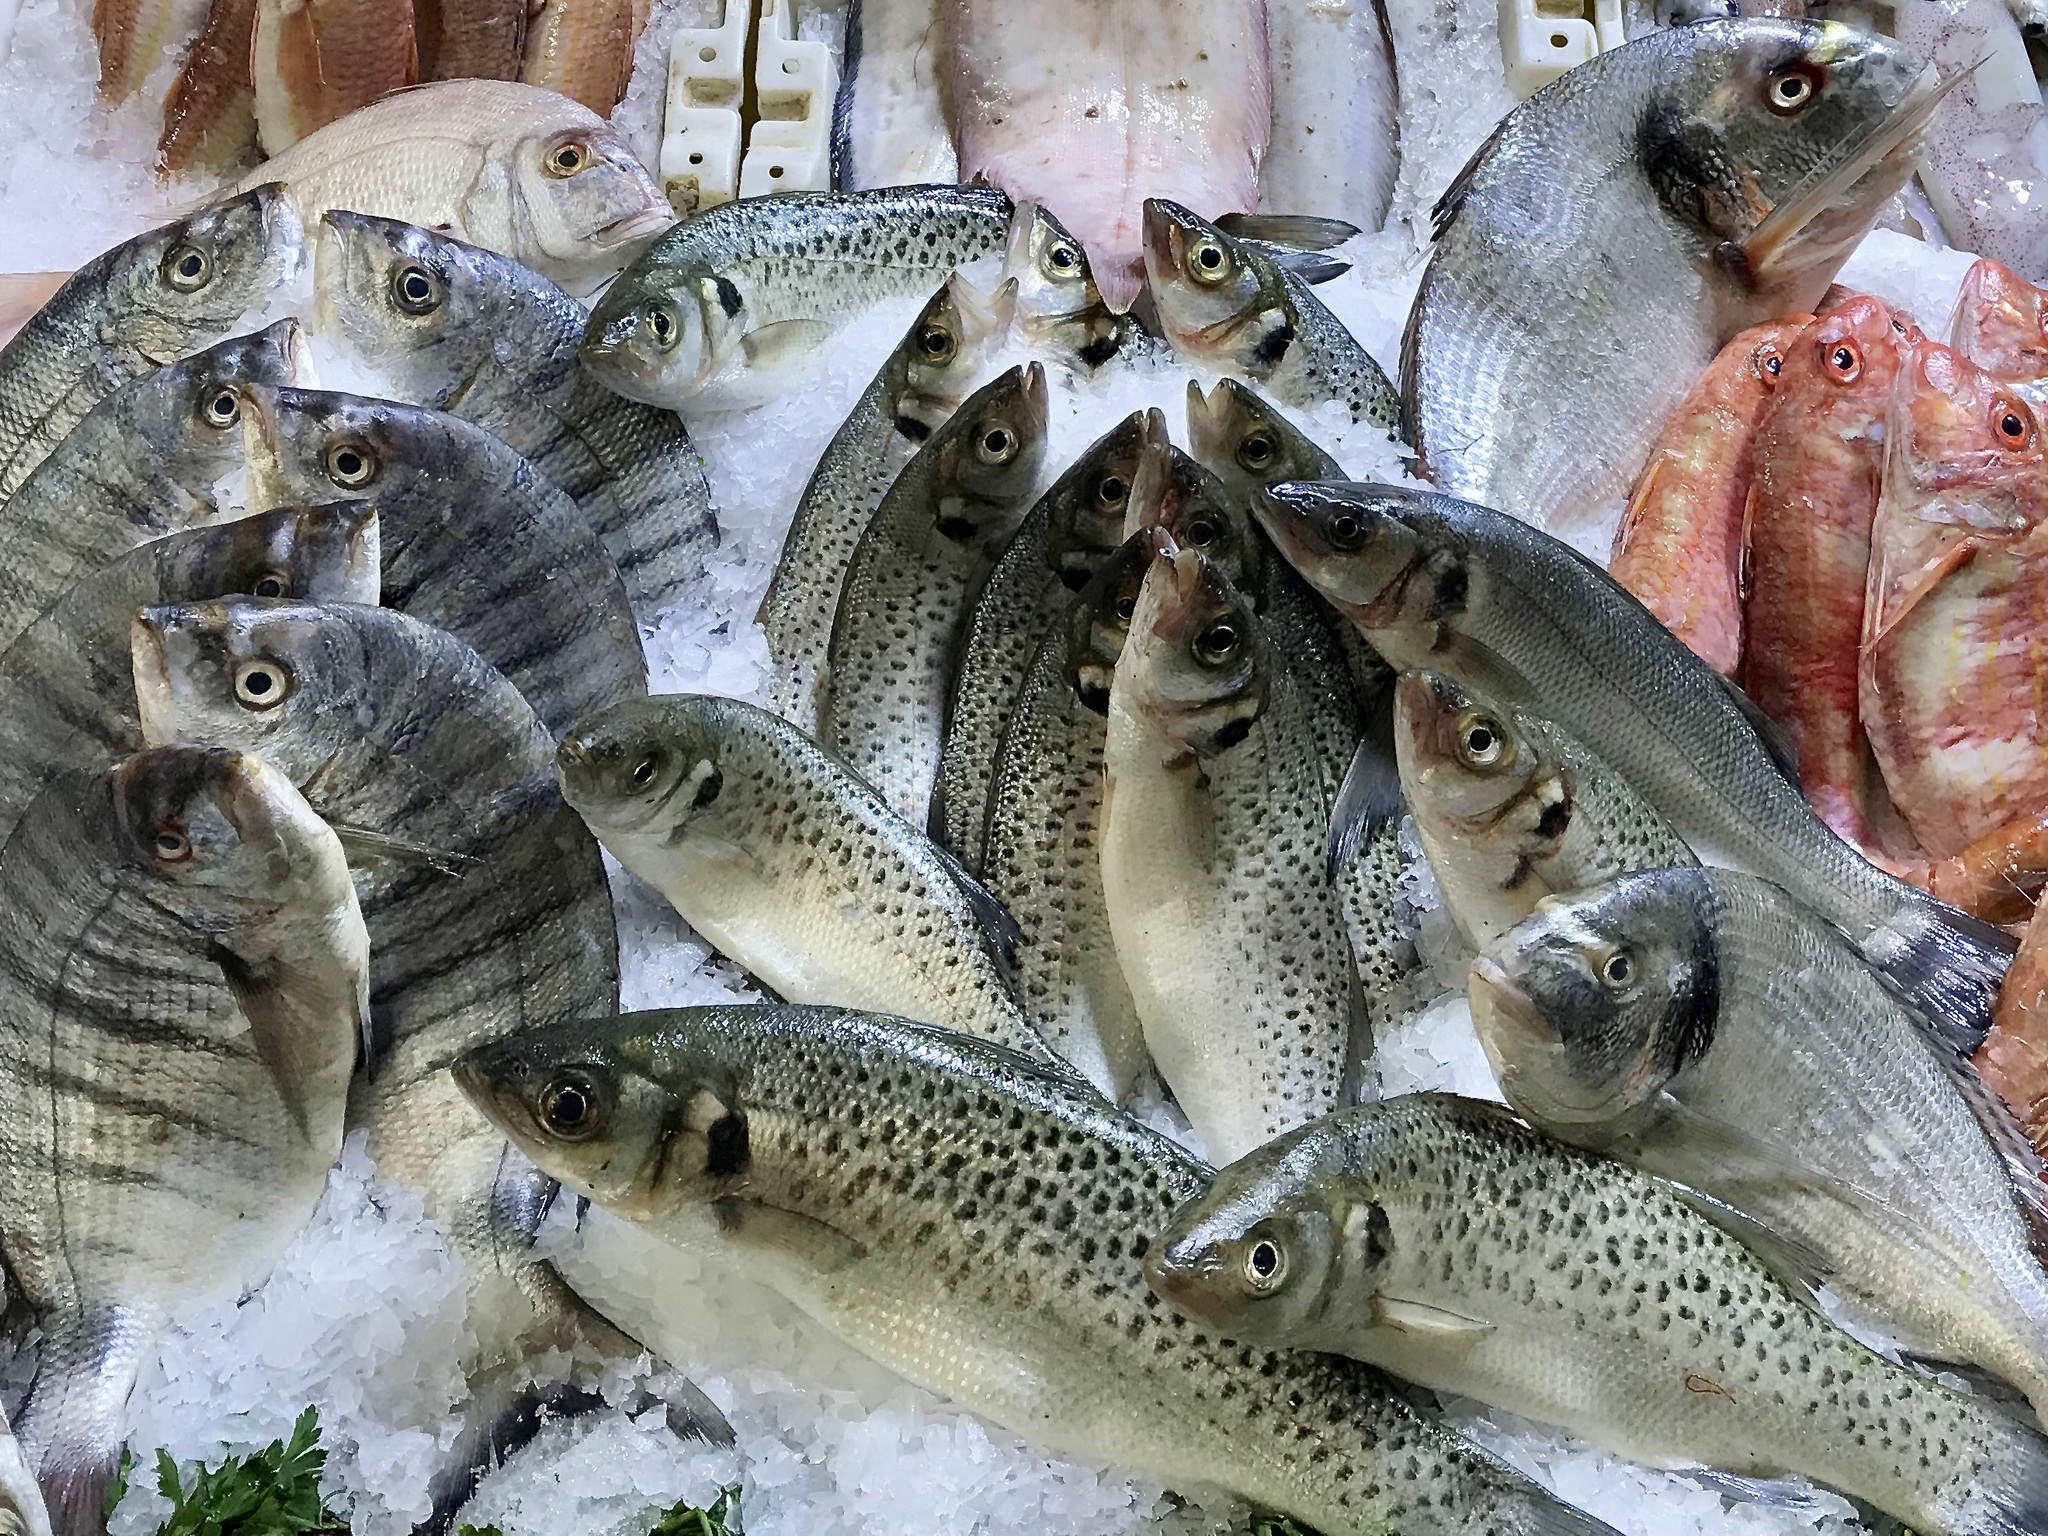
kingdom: Animalia
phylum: Chordata
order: Perciformes
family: Moronidae
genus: Dicentrarchus
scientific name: Dicentrarchus punctatus
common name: Black-spotted bass
